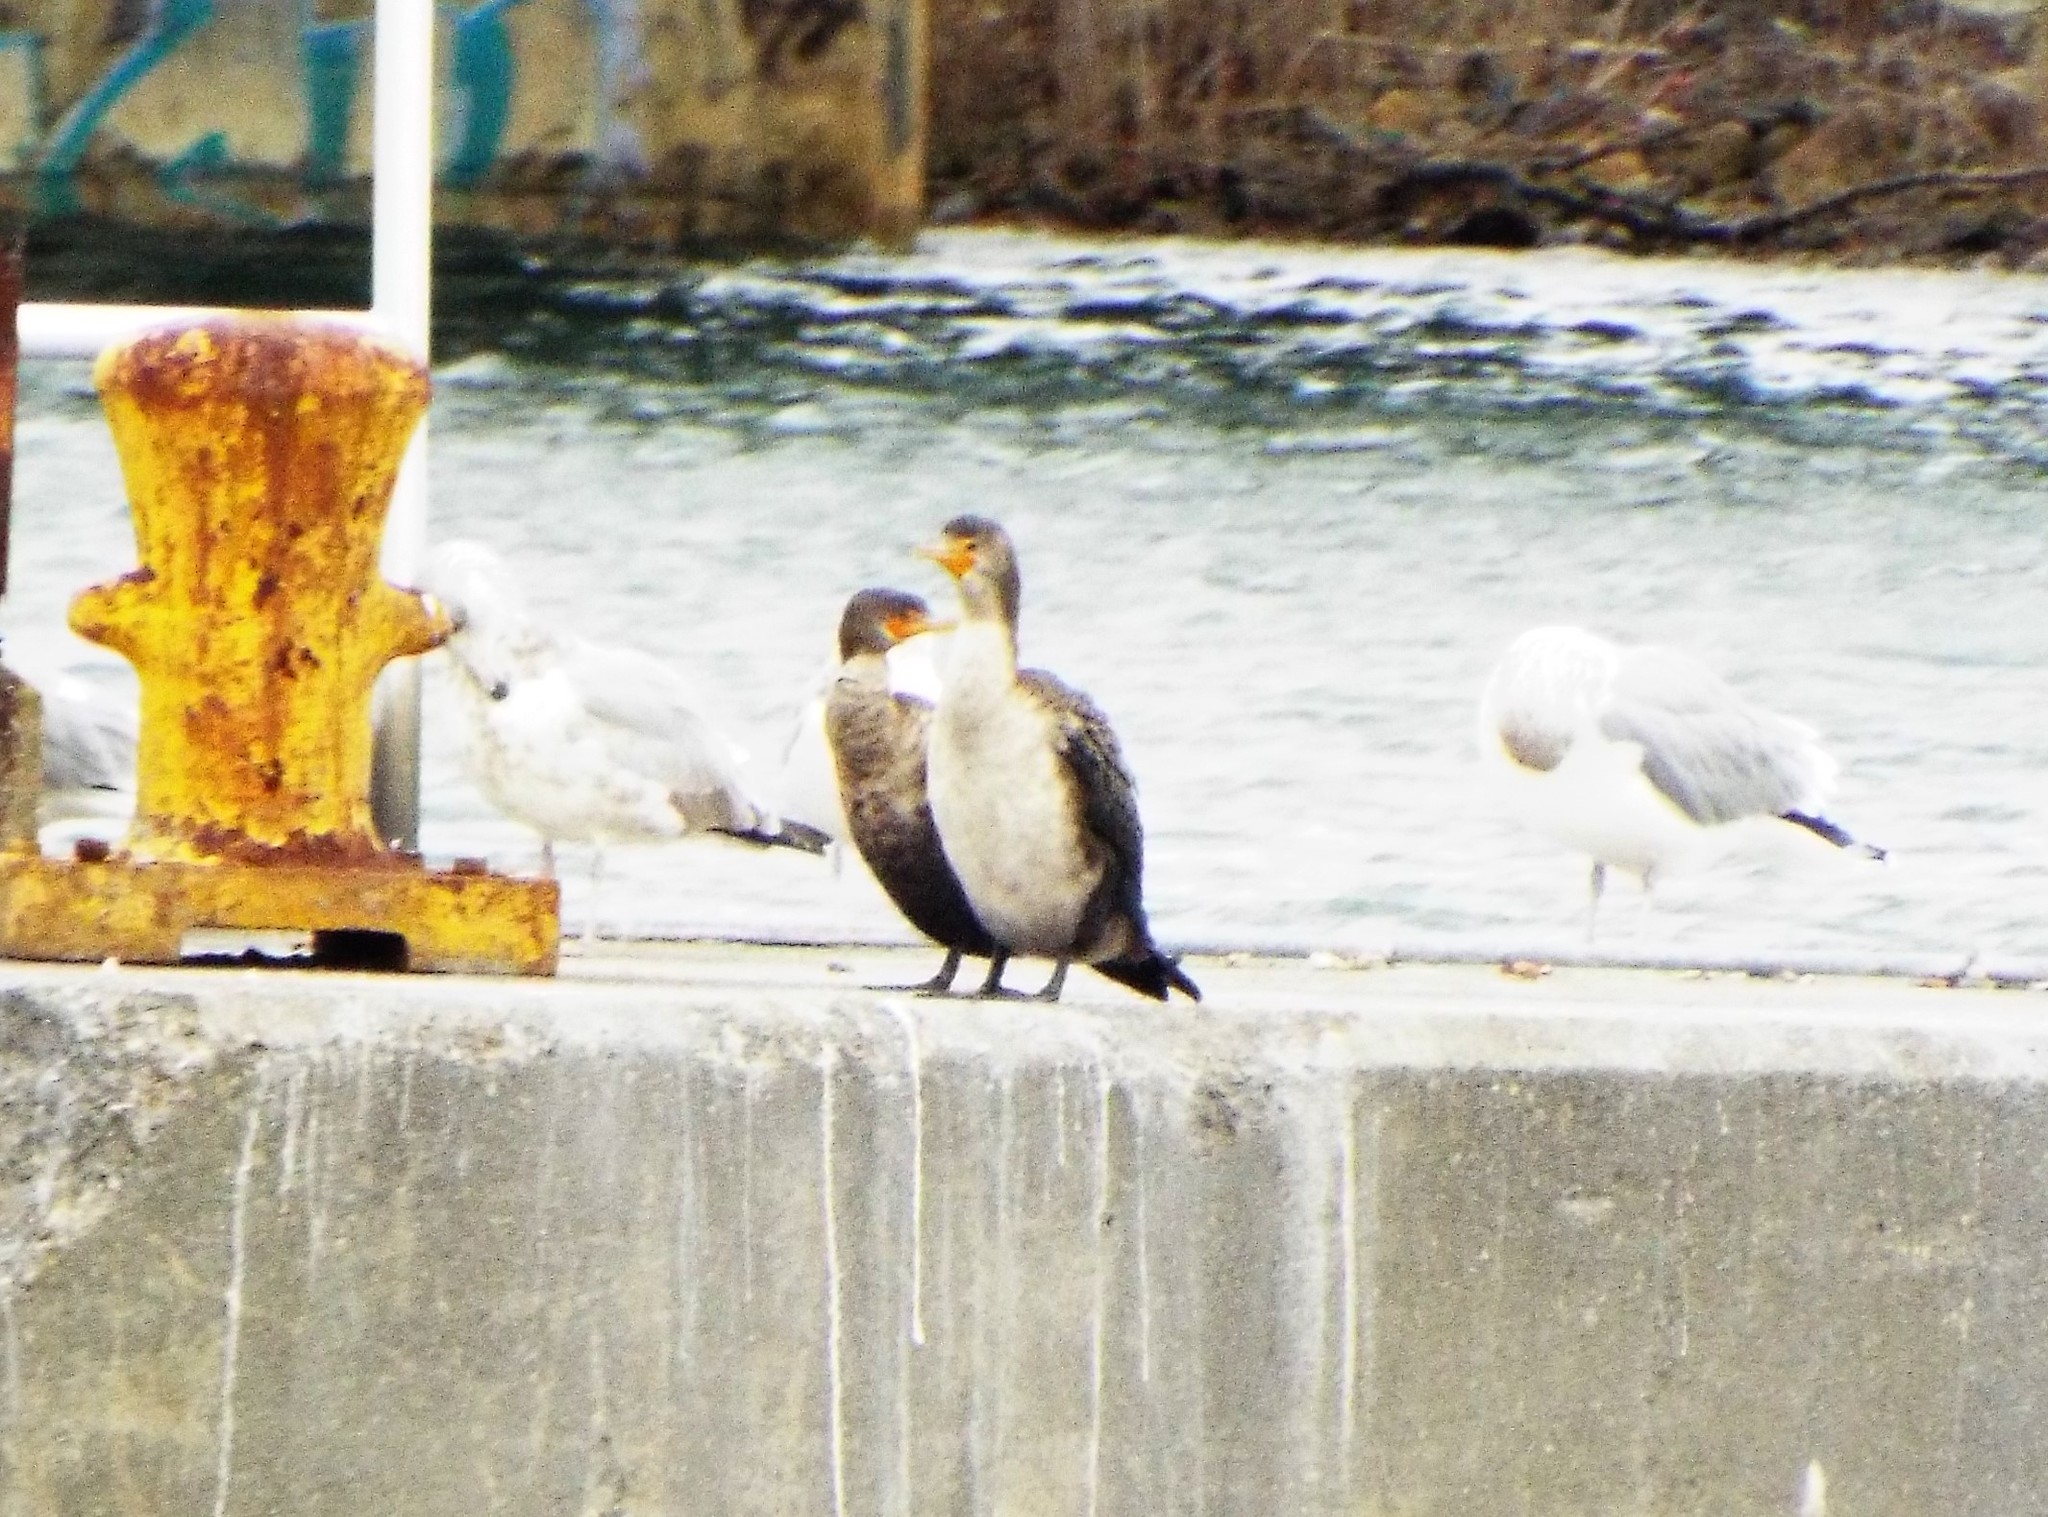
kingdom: Animalia
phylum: Chordata
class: Aves
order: Suliformes
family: Phalacrocoracidae
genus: Phalacrocorax
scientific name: Phalacrocorax auritus
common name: Double-crested cormorant
